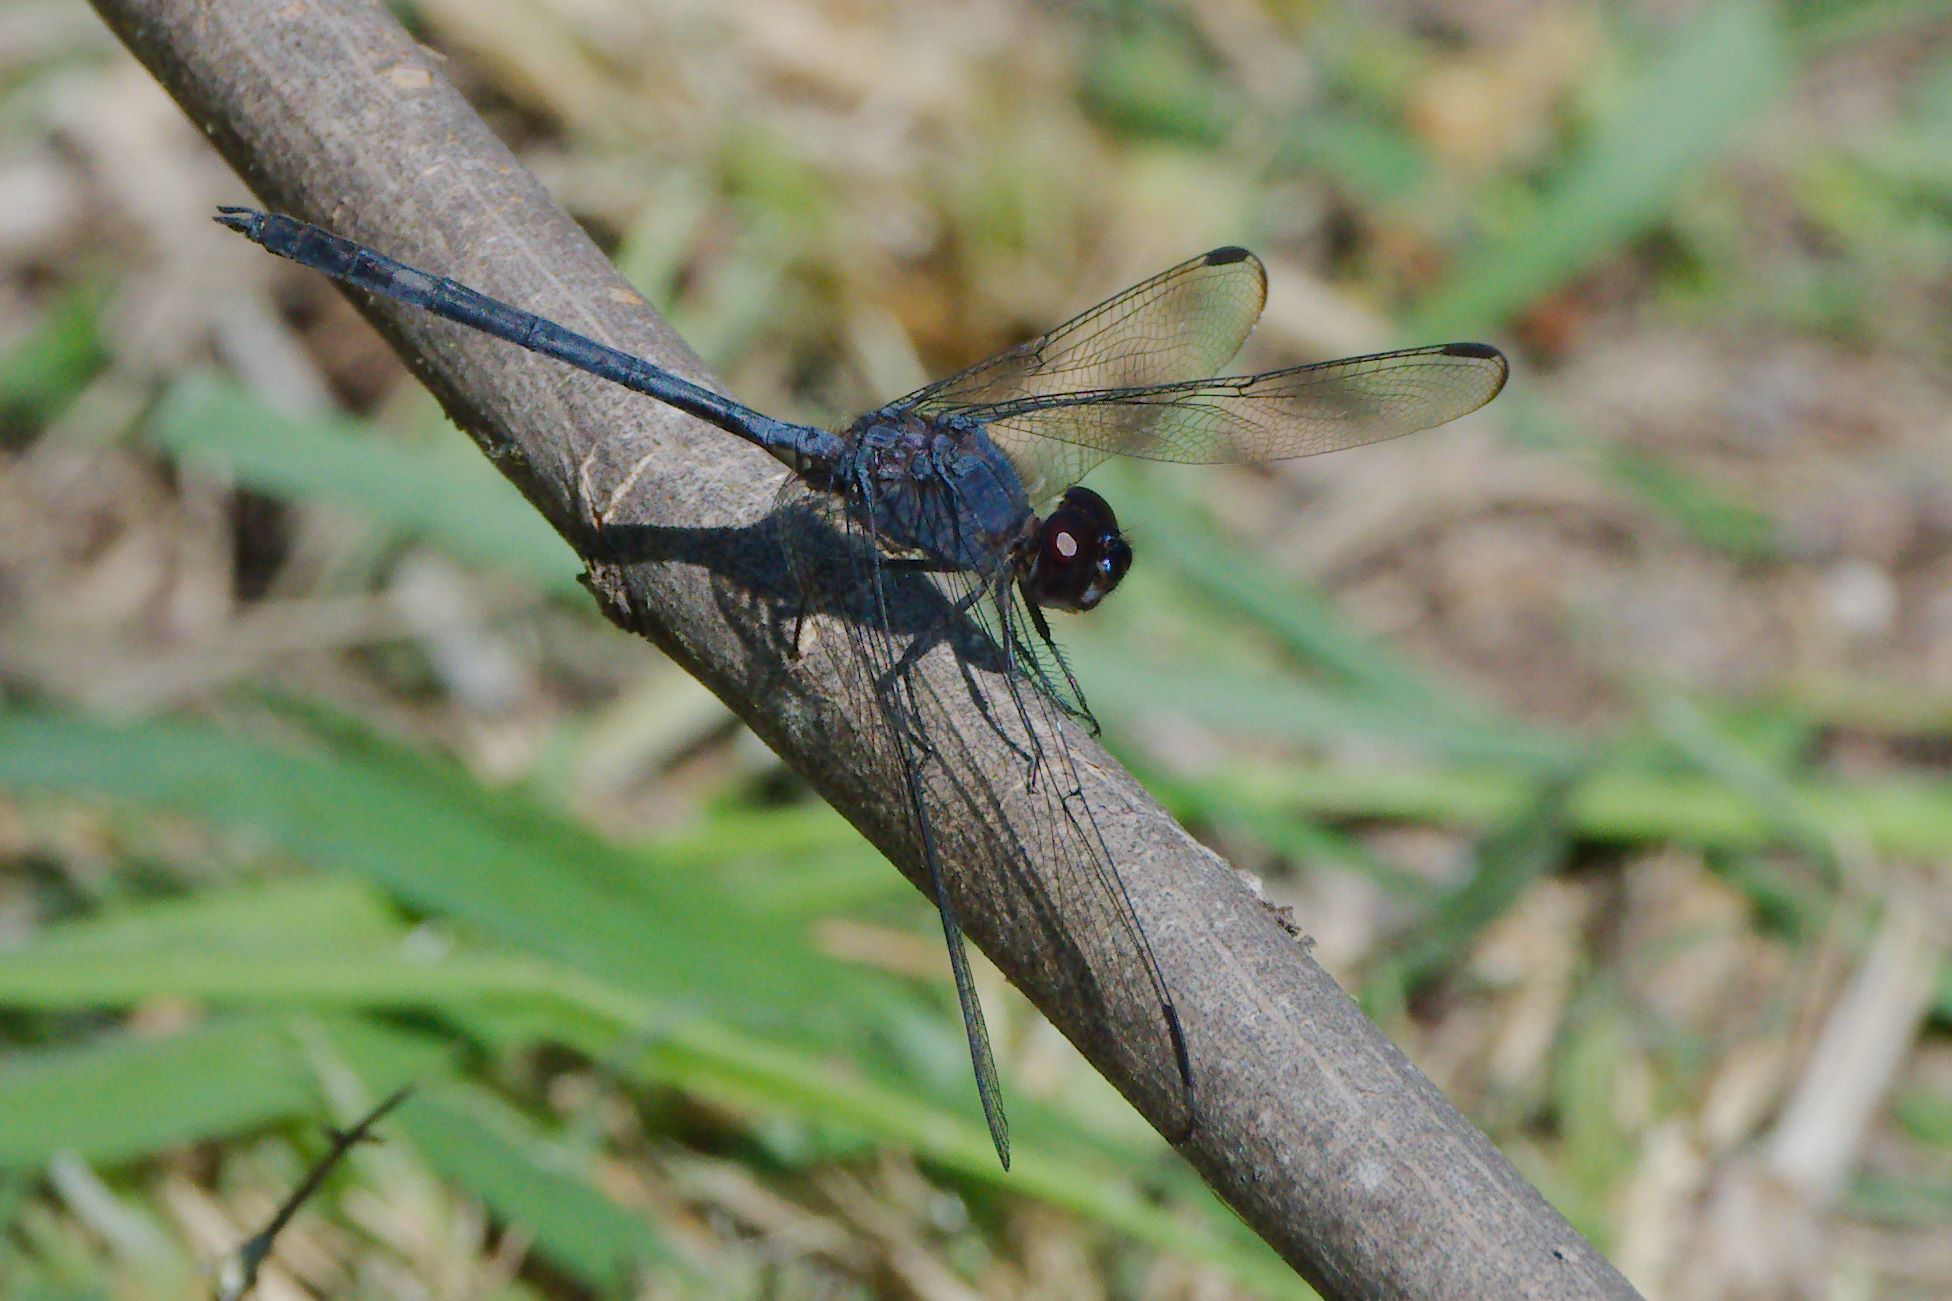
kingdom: Animalia
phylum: Arthropoda
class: Insecta
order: Odonata
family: Libellulidae
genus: Dythemis
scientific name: Dythemis nigrescens
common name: Black setwing
